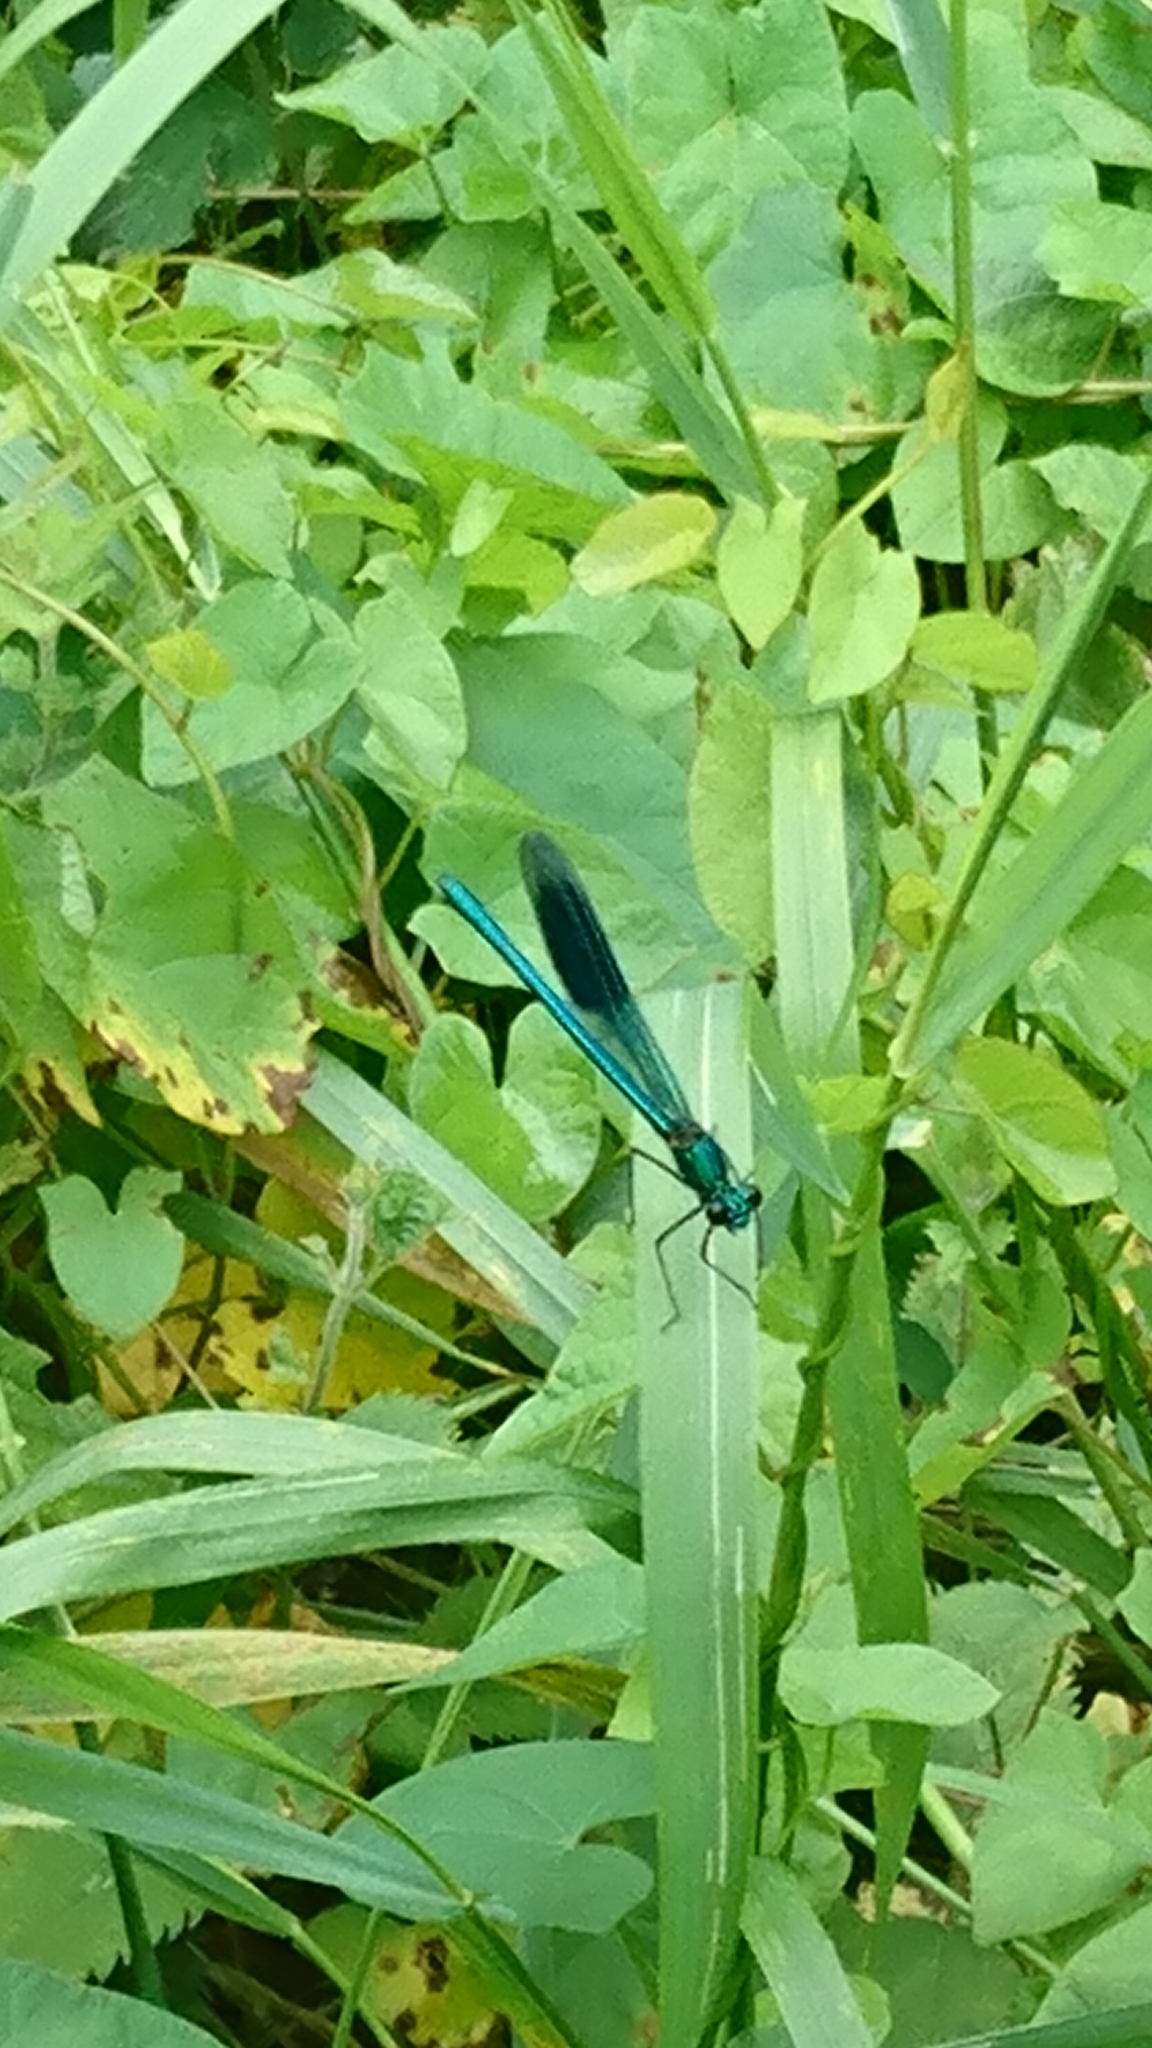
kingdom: Animalia
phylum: Arthropoda
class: Insecta
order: Odonata
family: Calopterygidae
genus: Calopteryx
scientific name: Calopteryx splendens
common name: Banded demoiselle
